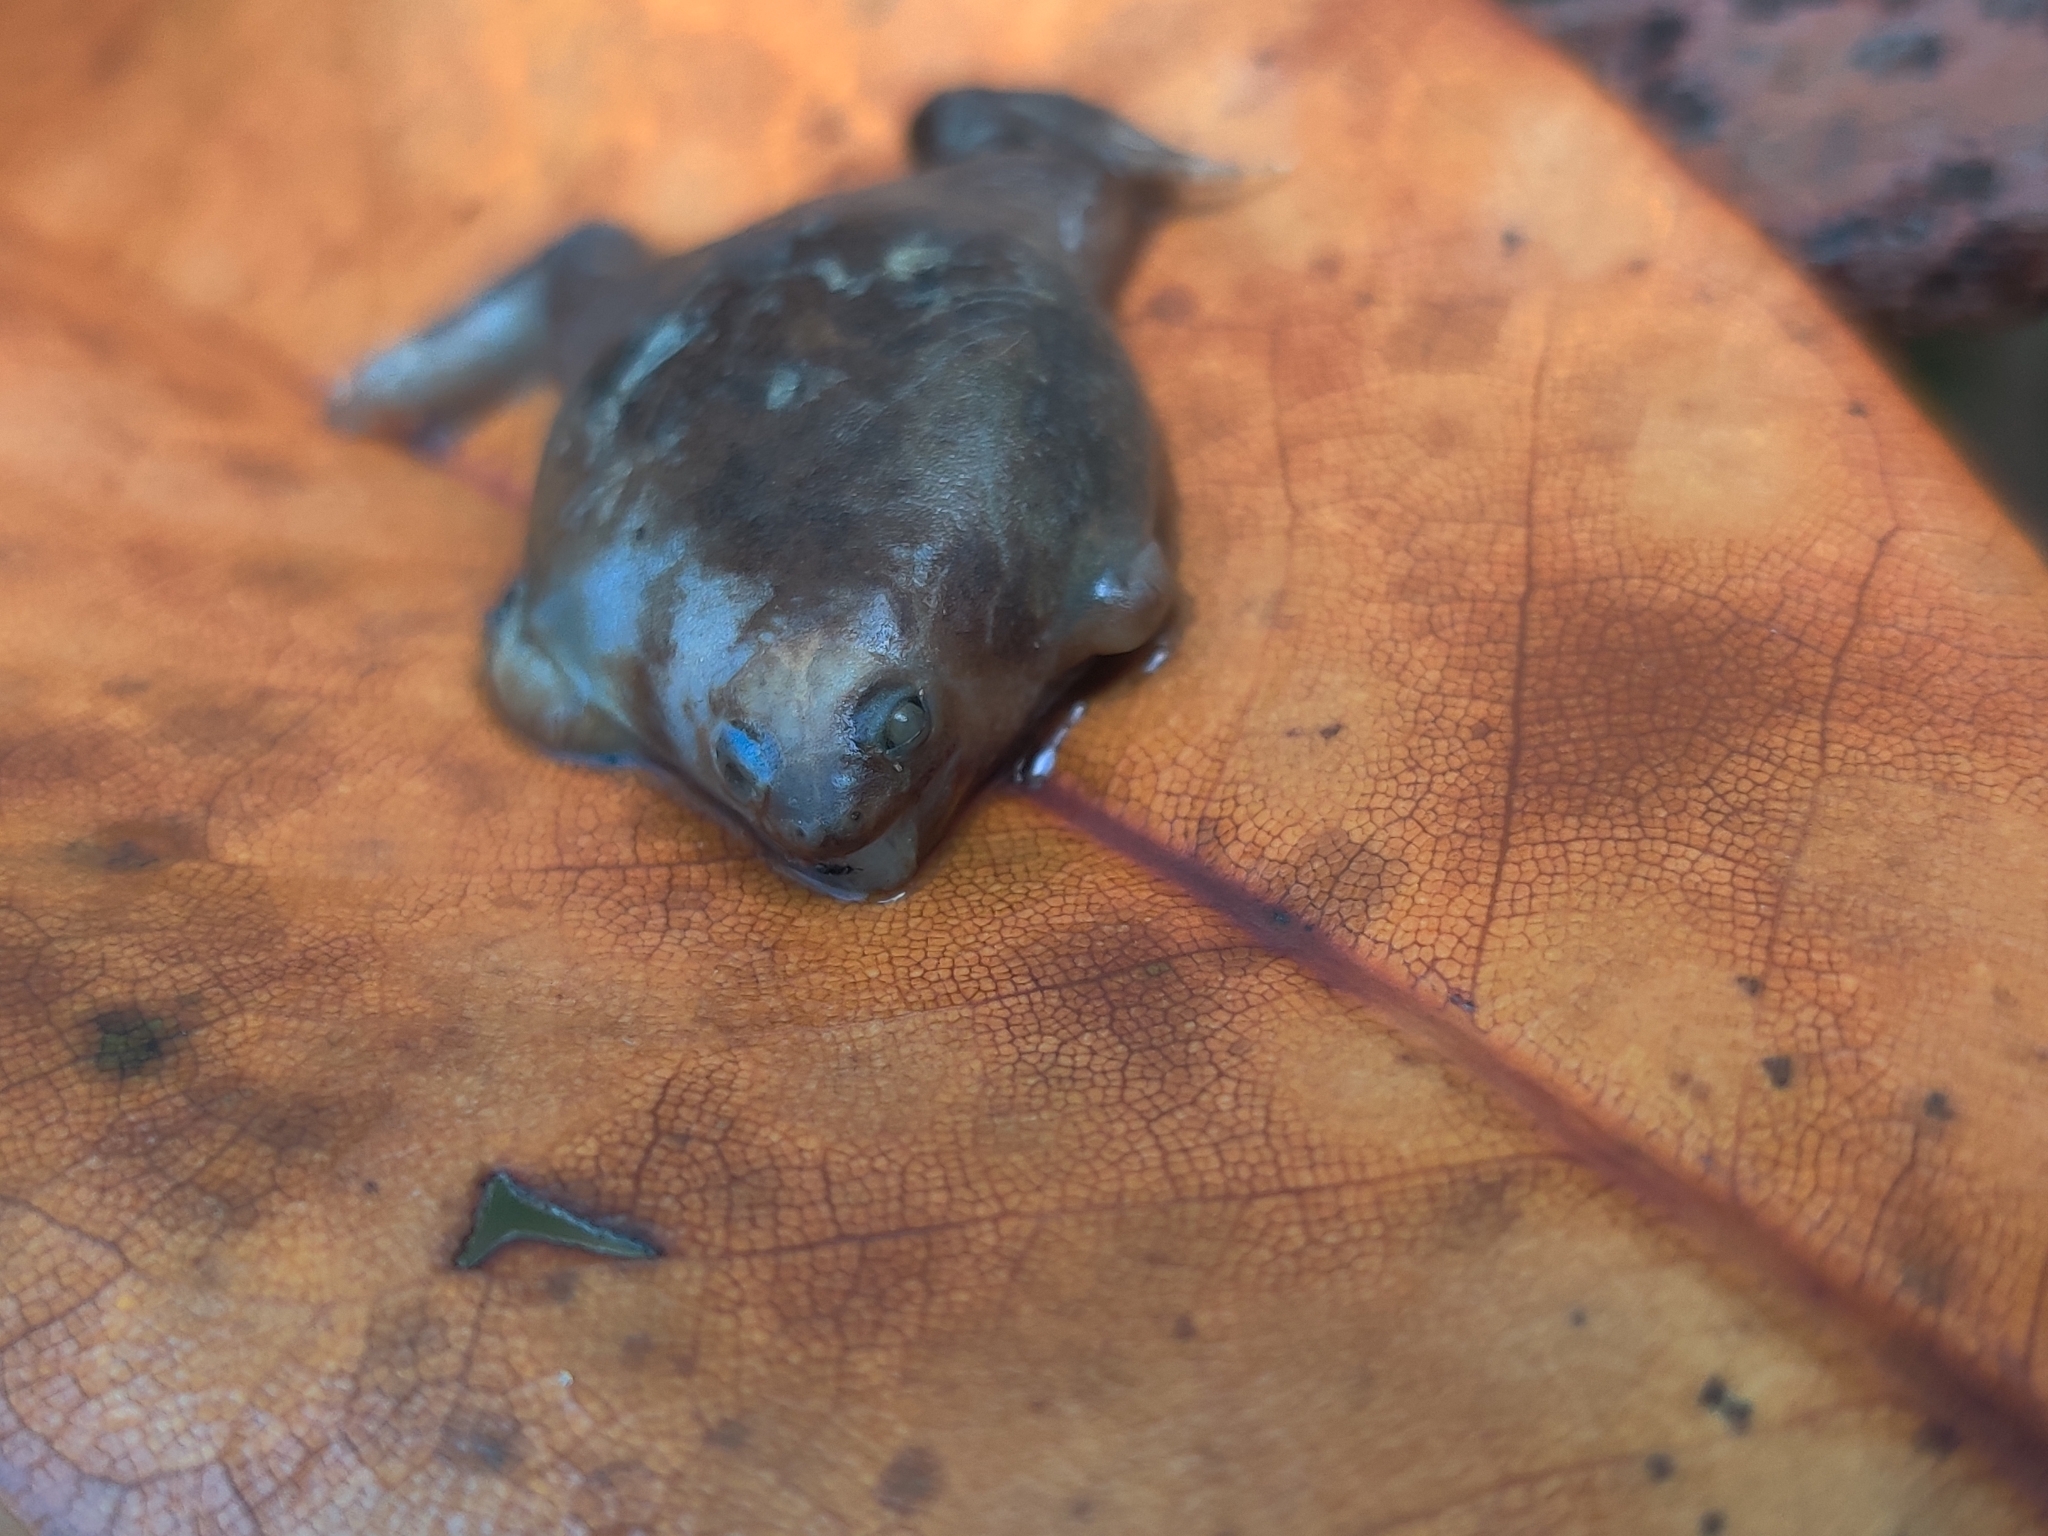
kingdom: Animalia
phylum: Chordata
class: Amphibia
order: Anura
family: Microhylidae
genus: Gastrophryne
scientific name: Gastrophryne carolinensis
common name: Eastern narrowmouth toad
